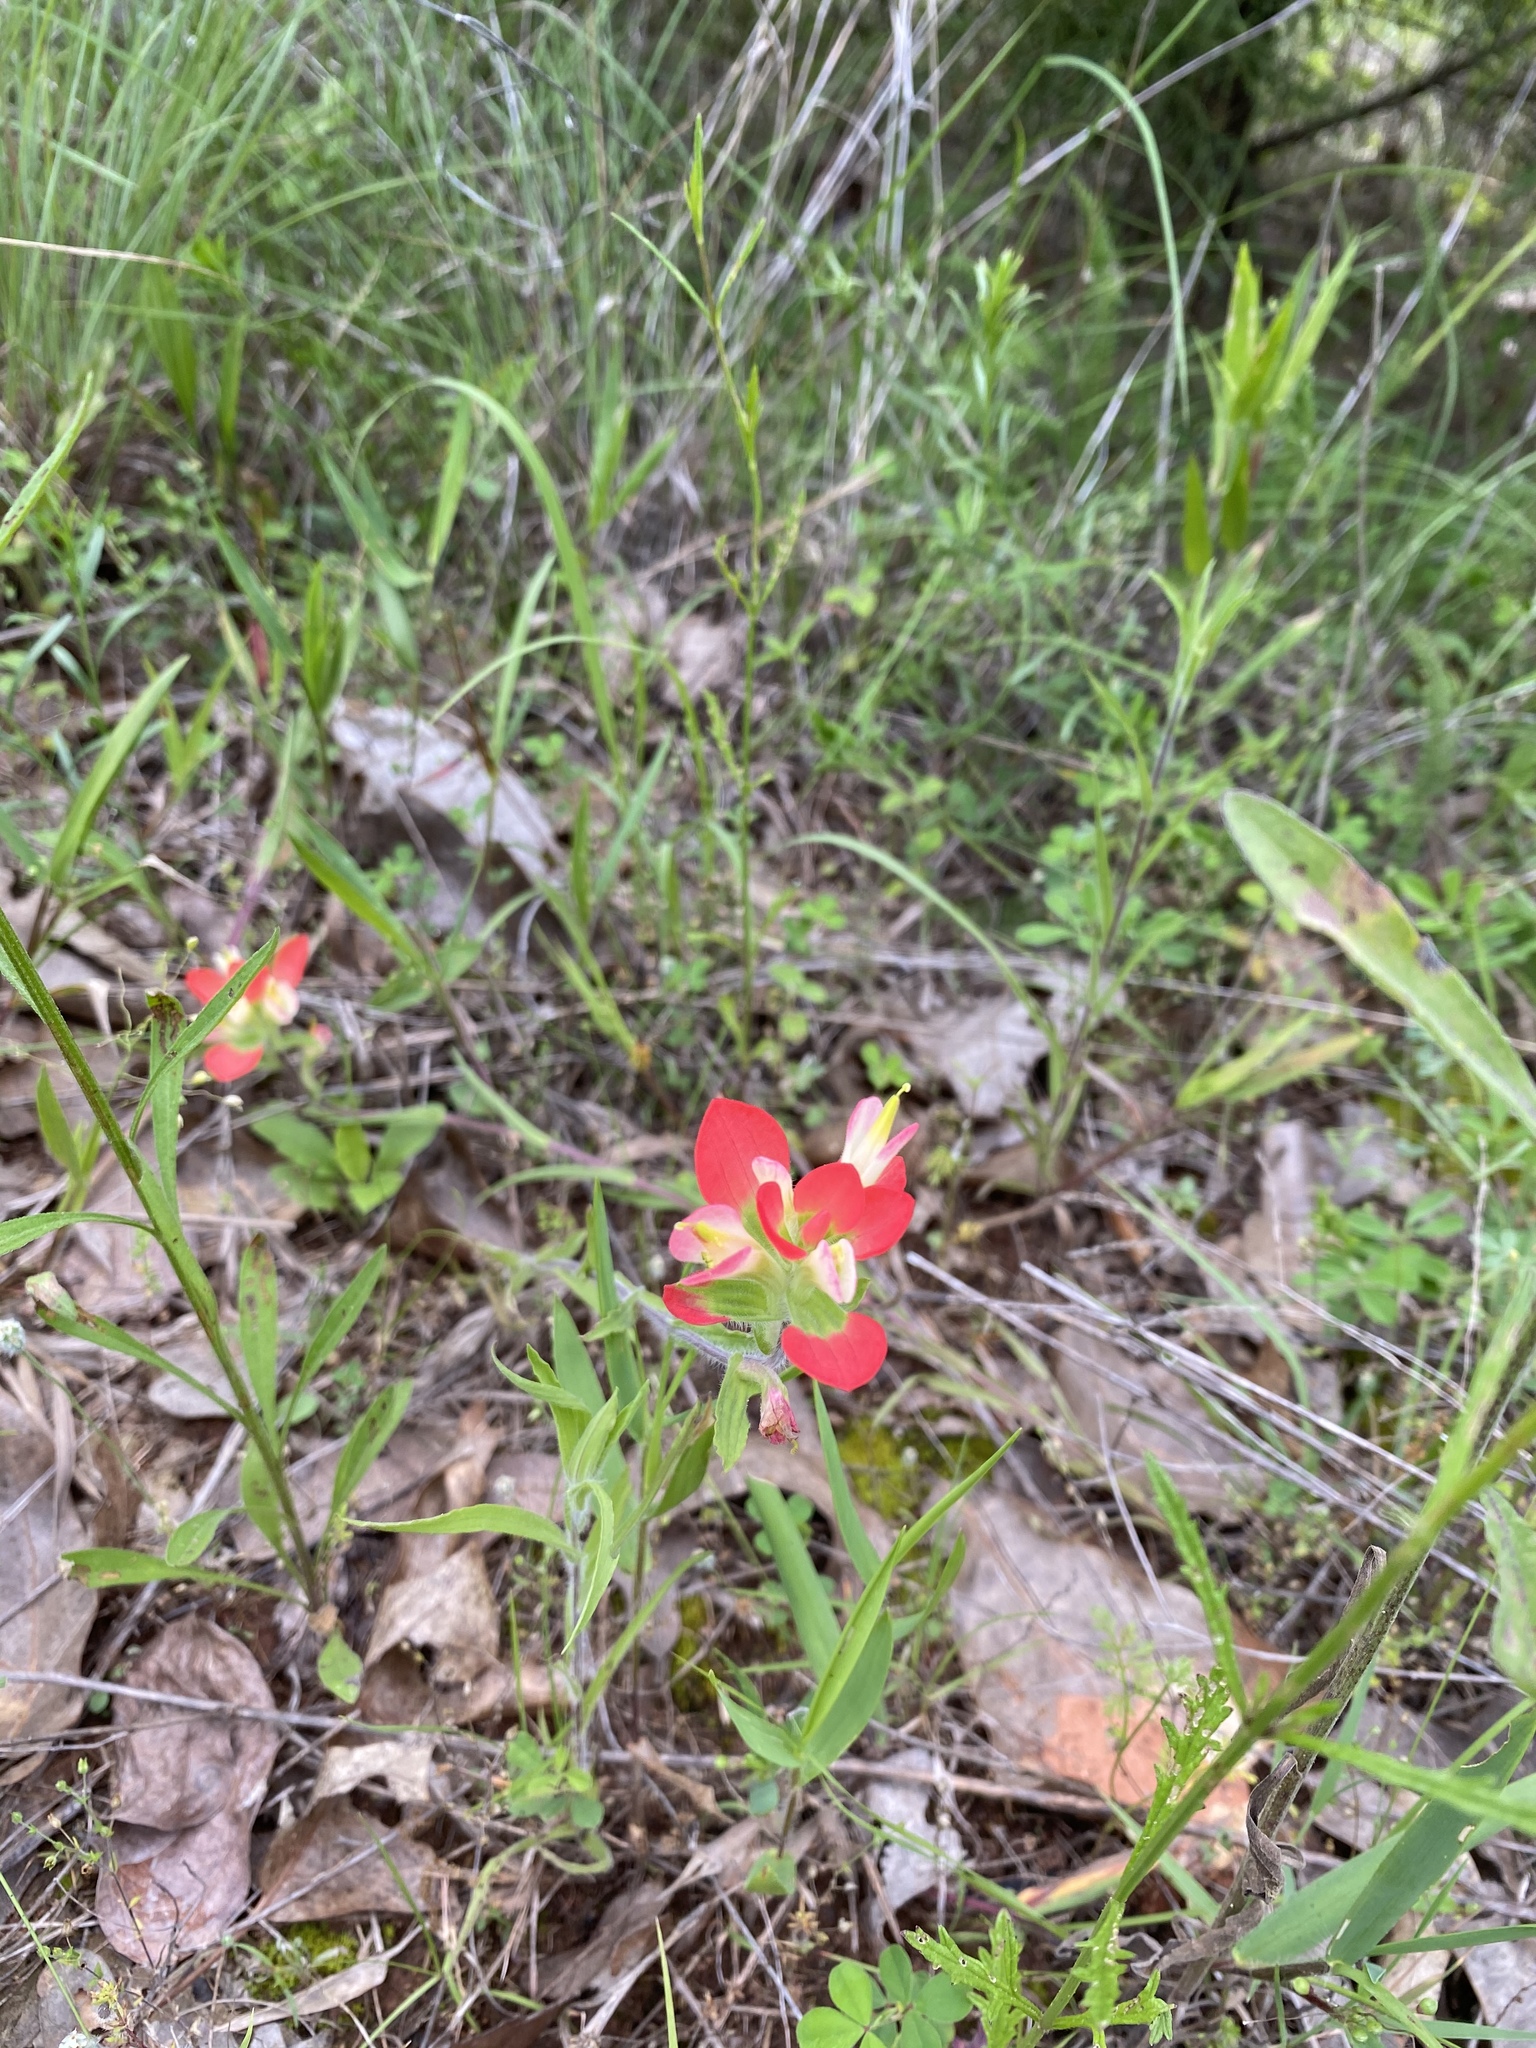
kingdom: Plantae
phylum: Tracheophyta
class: Magnoliopsida
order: Lamiales
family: Orobanchaceae
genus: Castilleja
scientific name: Castilleja indivisa
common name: Texas paintbrush
